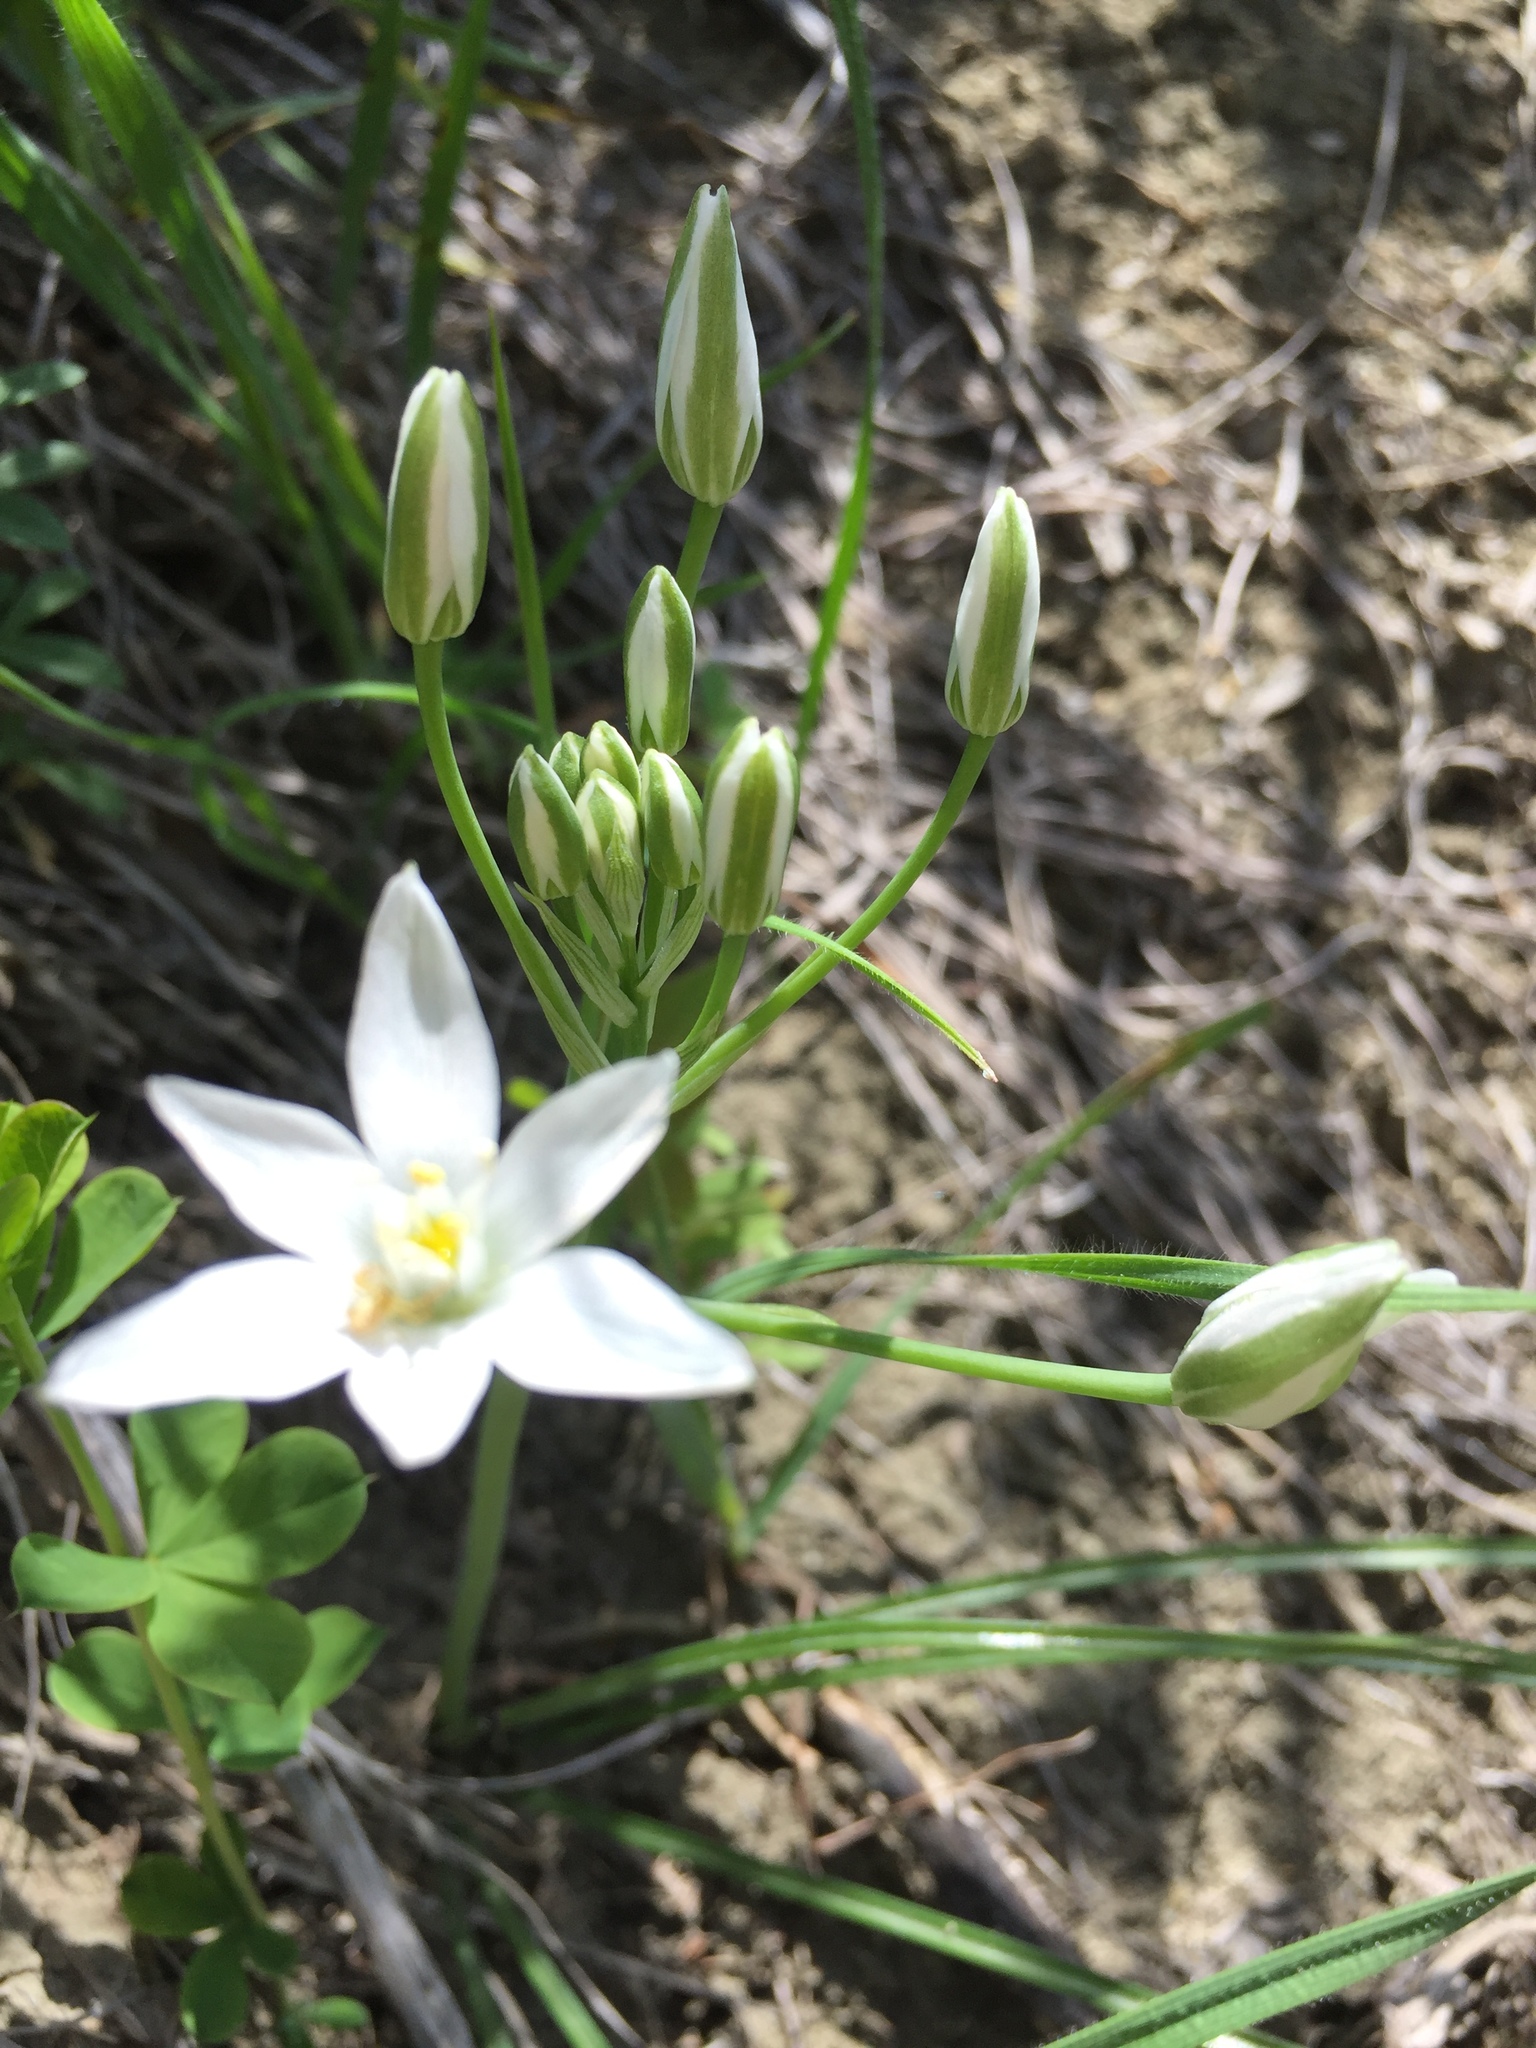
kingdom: Plantae
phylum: Tracheophyta
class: Liliopsida
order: Asparagales
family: Asparagaceae
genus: Ornithogalum
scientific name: Ornithogalum orthophyllum
